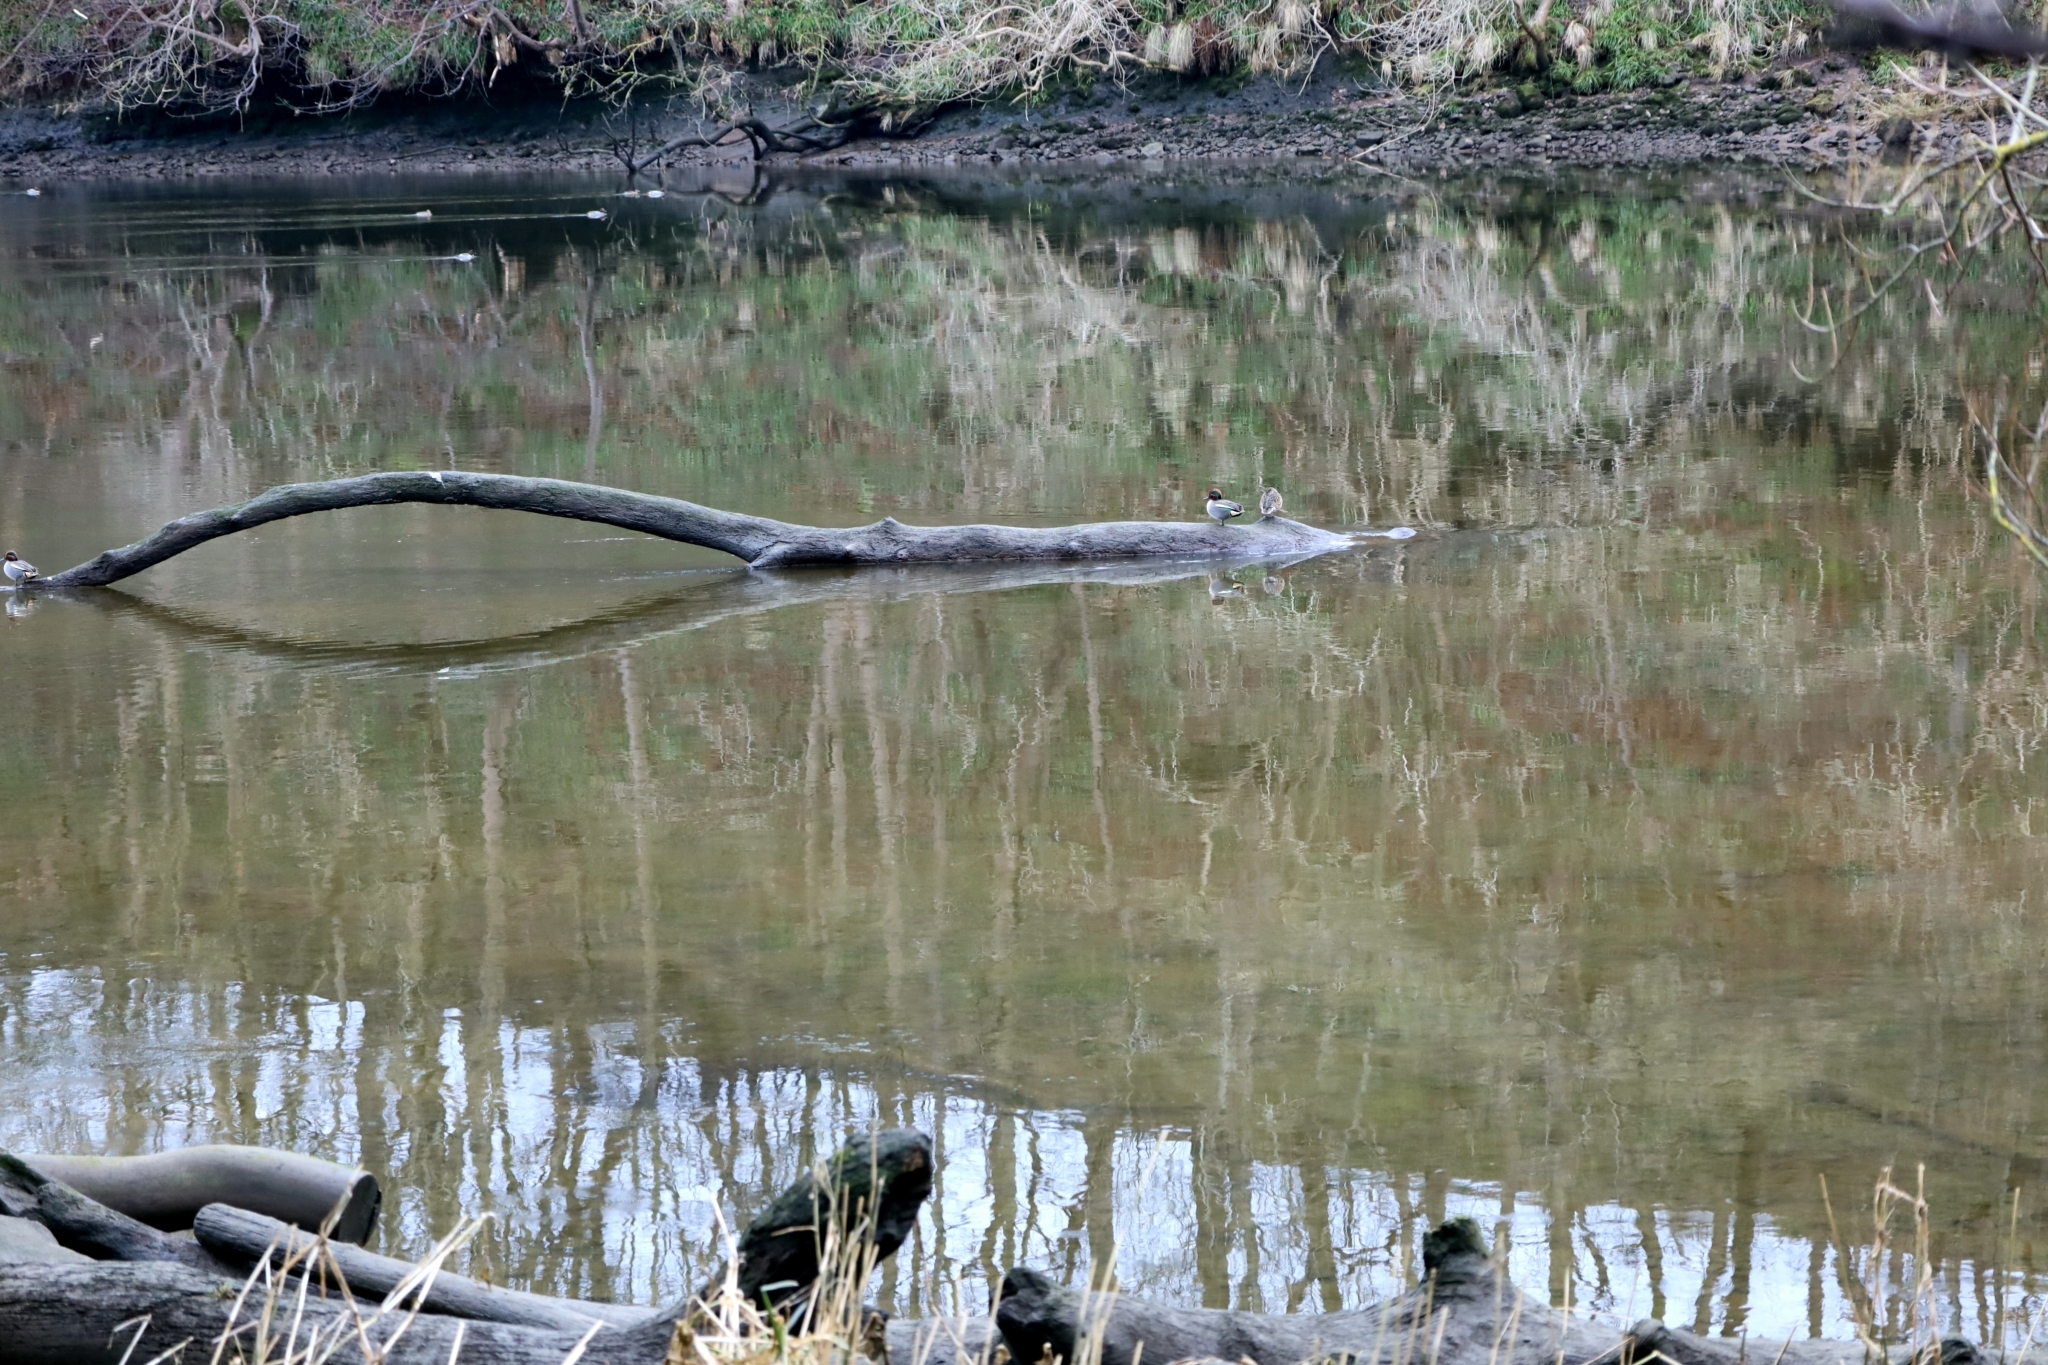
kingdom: Animalia
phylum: Chordata
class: Aves
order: Anseriformes
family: Anatidae
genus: Anas
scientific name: Anas crecca
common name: Eurasian teal
